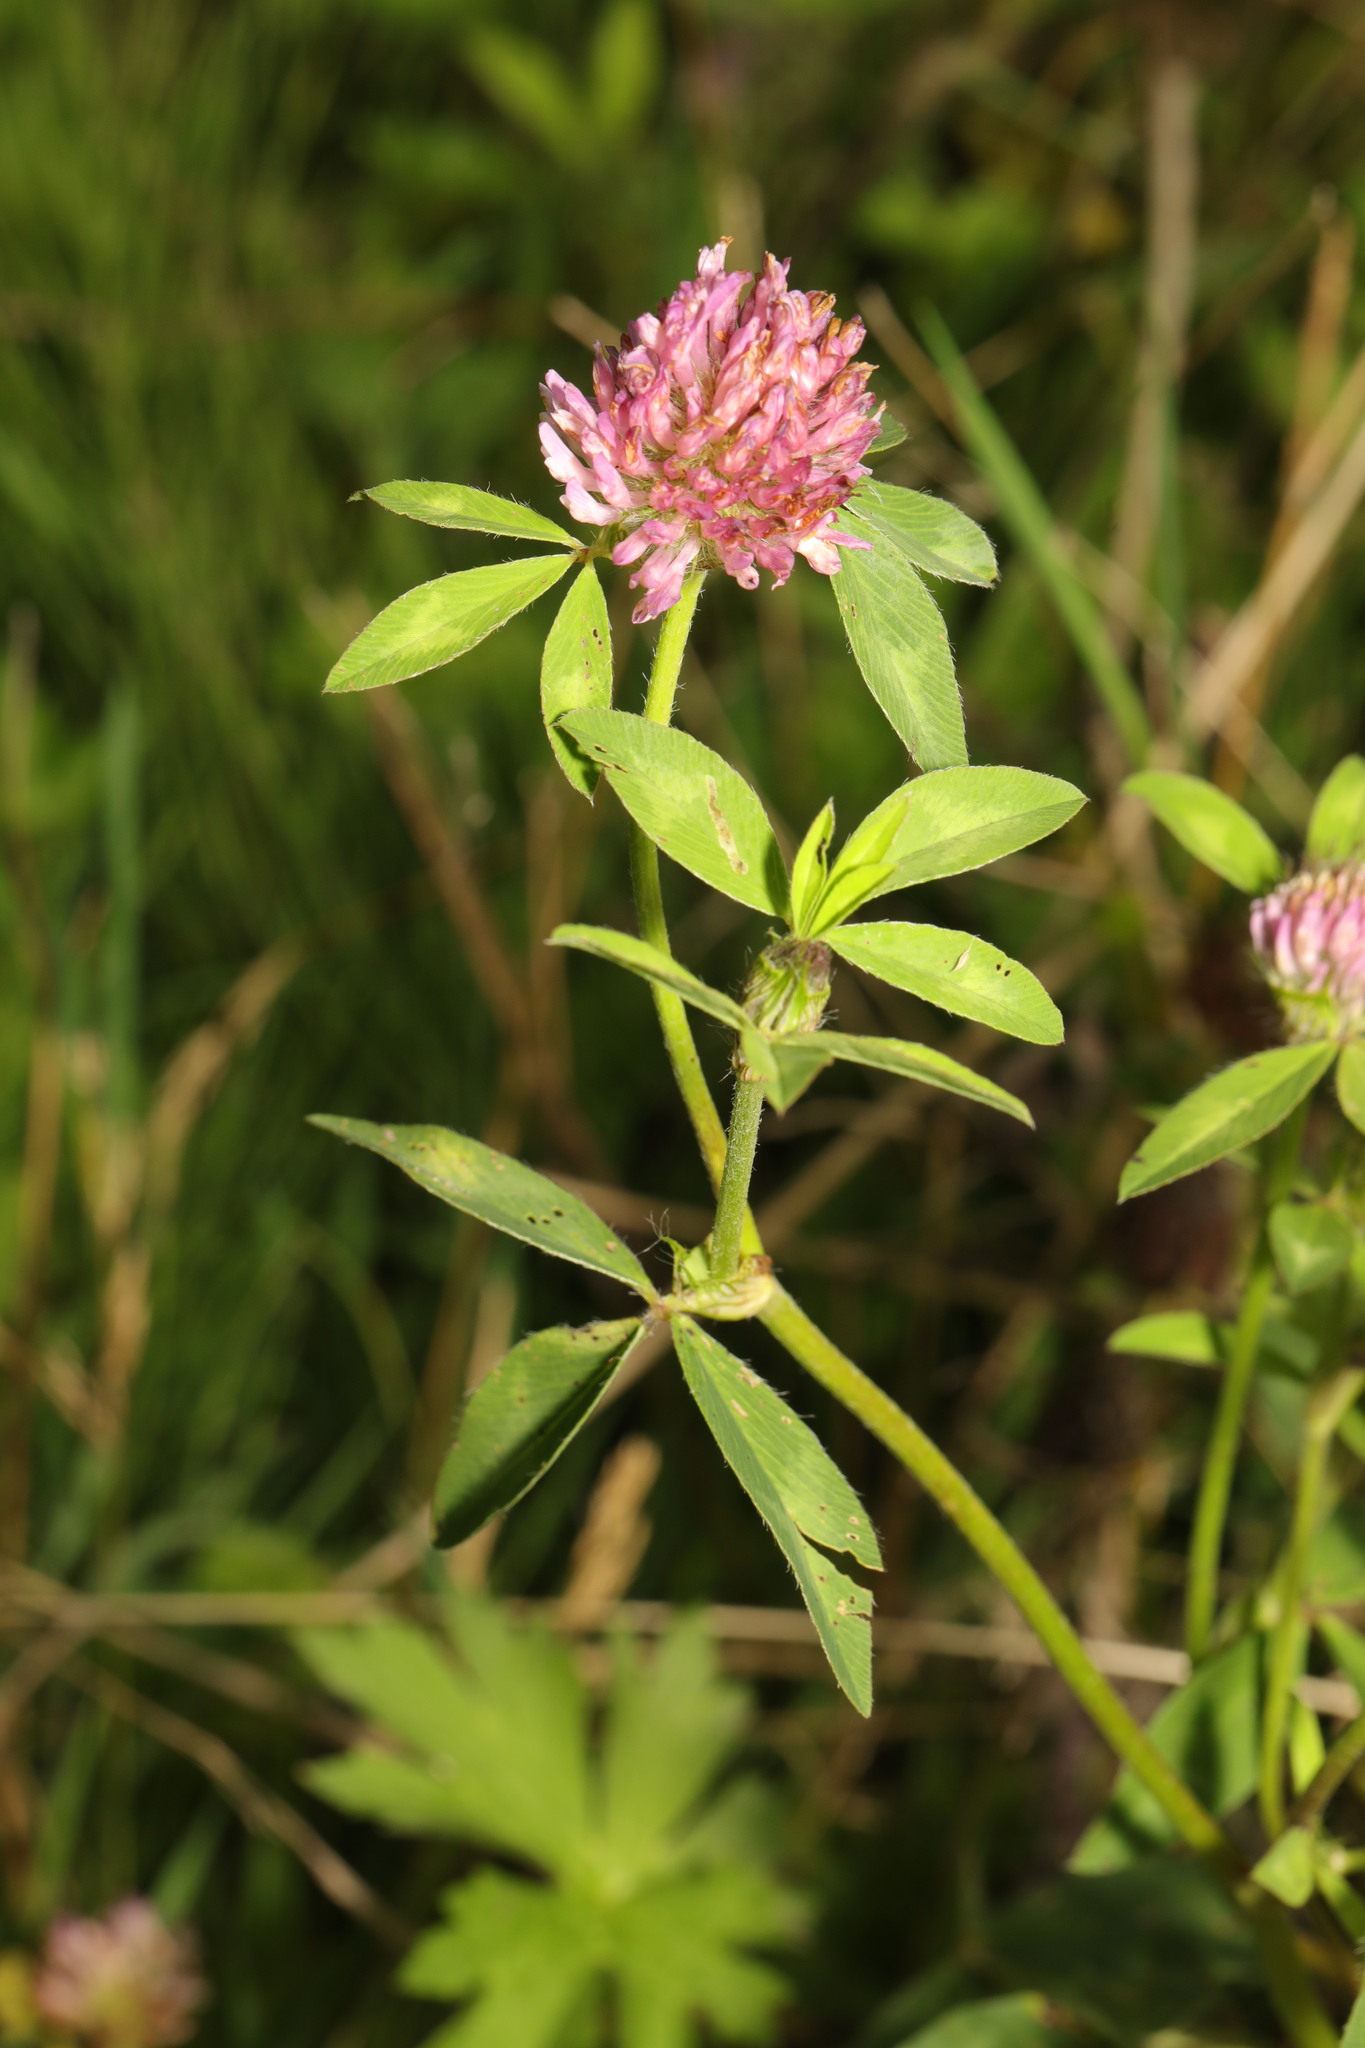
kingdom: Plantae
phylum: Tracheophyta
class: Magnoliopsida
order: Fabales
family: Fabaceae
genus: Trifolium
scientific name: Trifolium pratense
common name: Red clover
